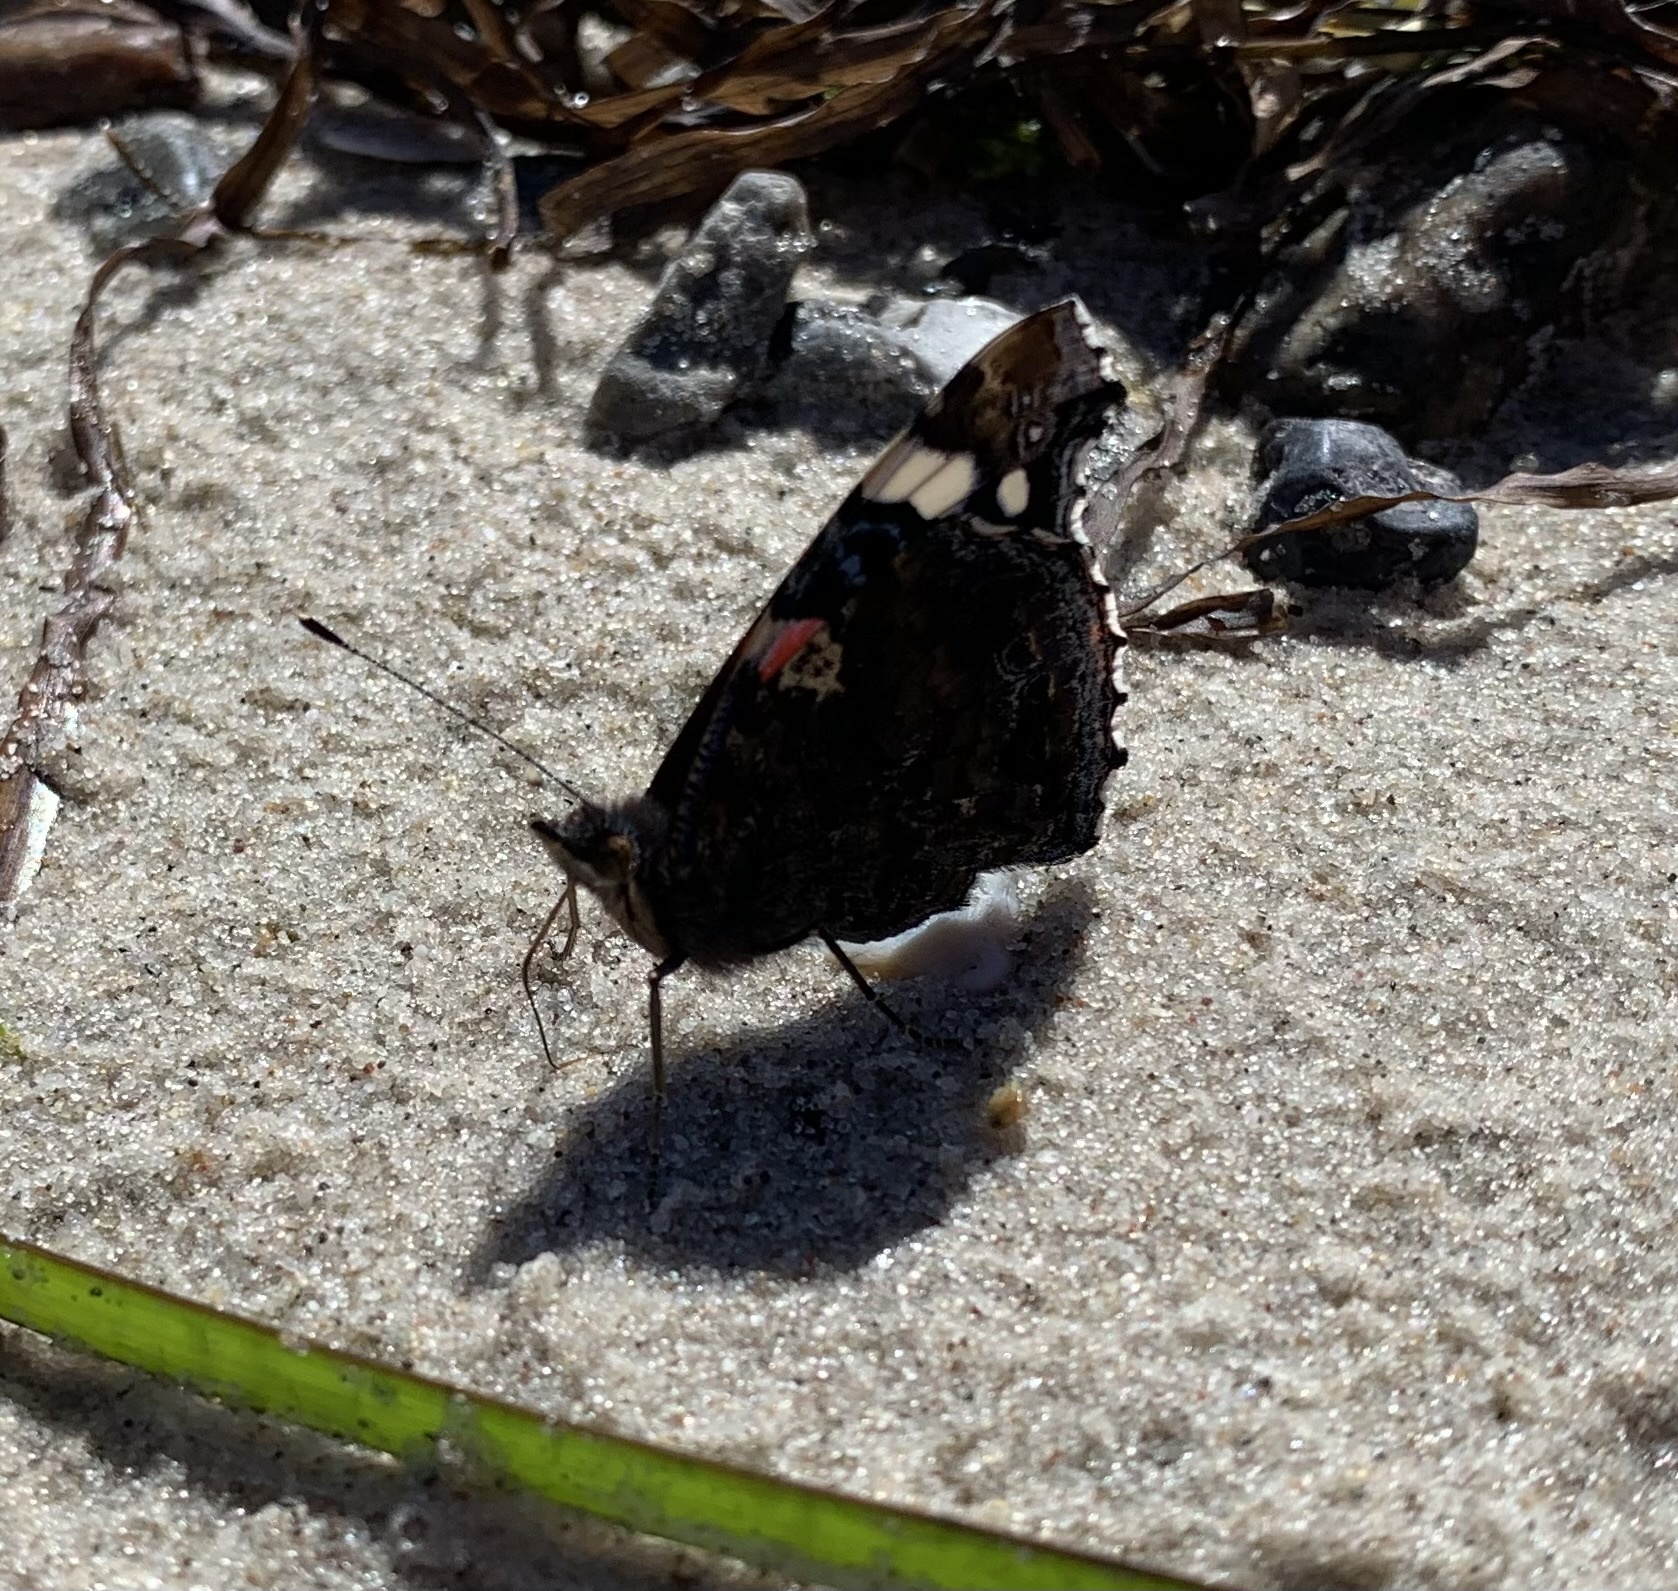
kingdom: Animalia
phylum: Arthropoda
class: Insecta
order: Lepidoptera
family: Nymphalidae
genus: Vanessa
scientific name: Vanessa atalanta
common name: Red admiral
